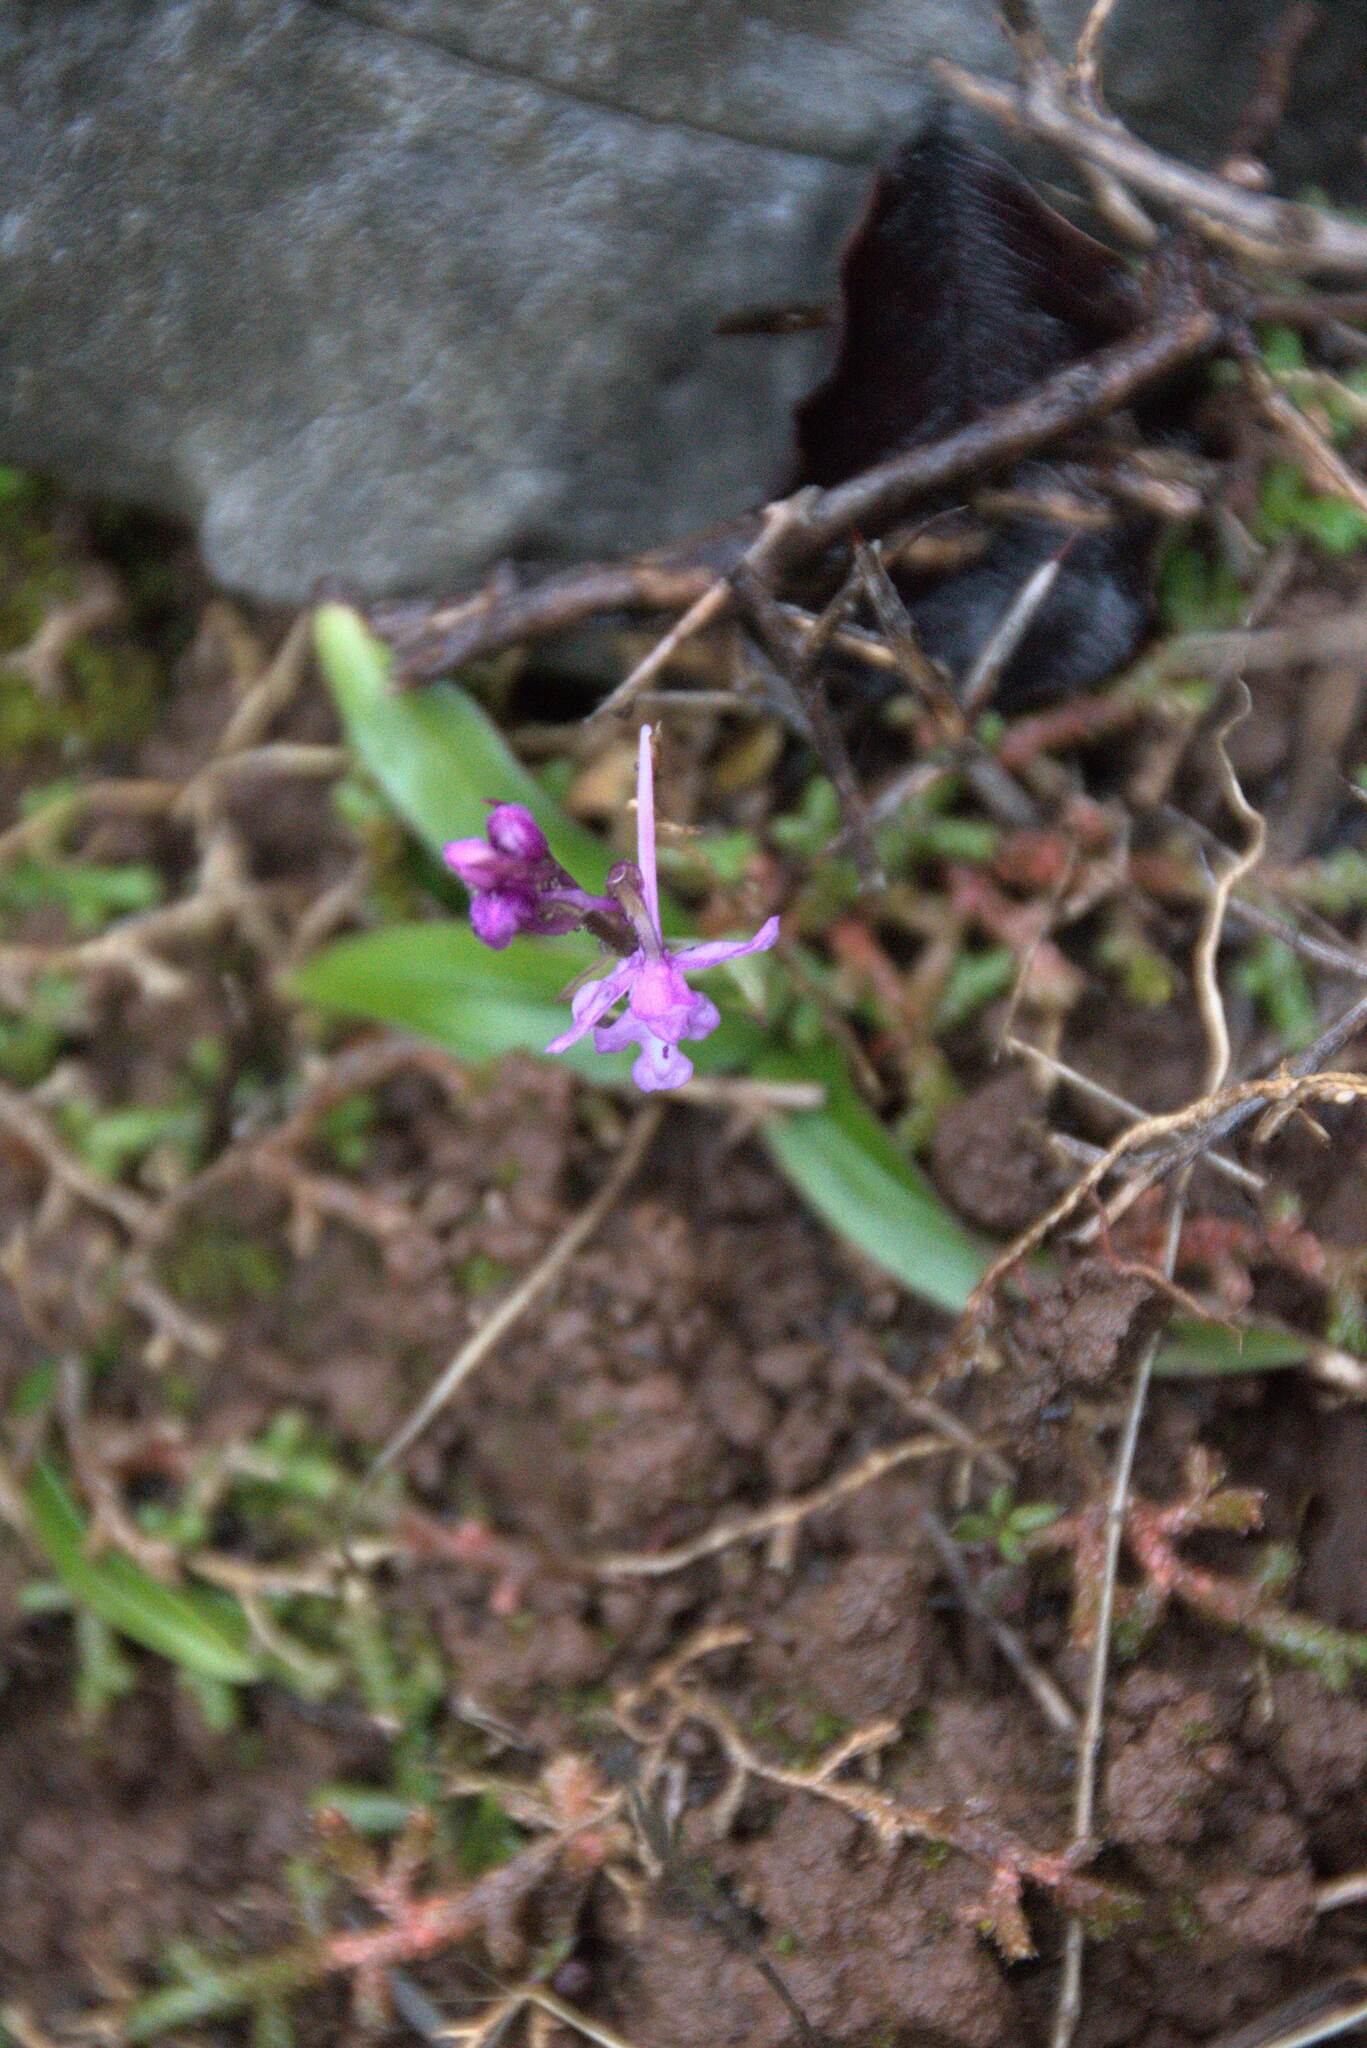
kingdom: Plantae
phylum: Tracheophyta
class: Liliopsida
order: Asparagales
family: Orchidaceae
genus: Orchis
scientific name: Orchis quadripunctata
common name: Four-spotted orchid
